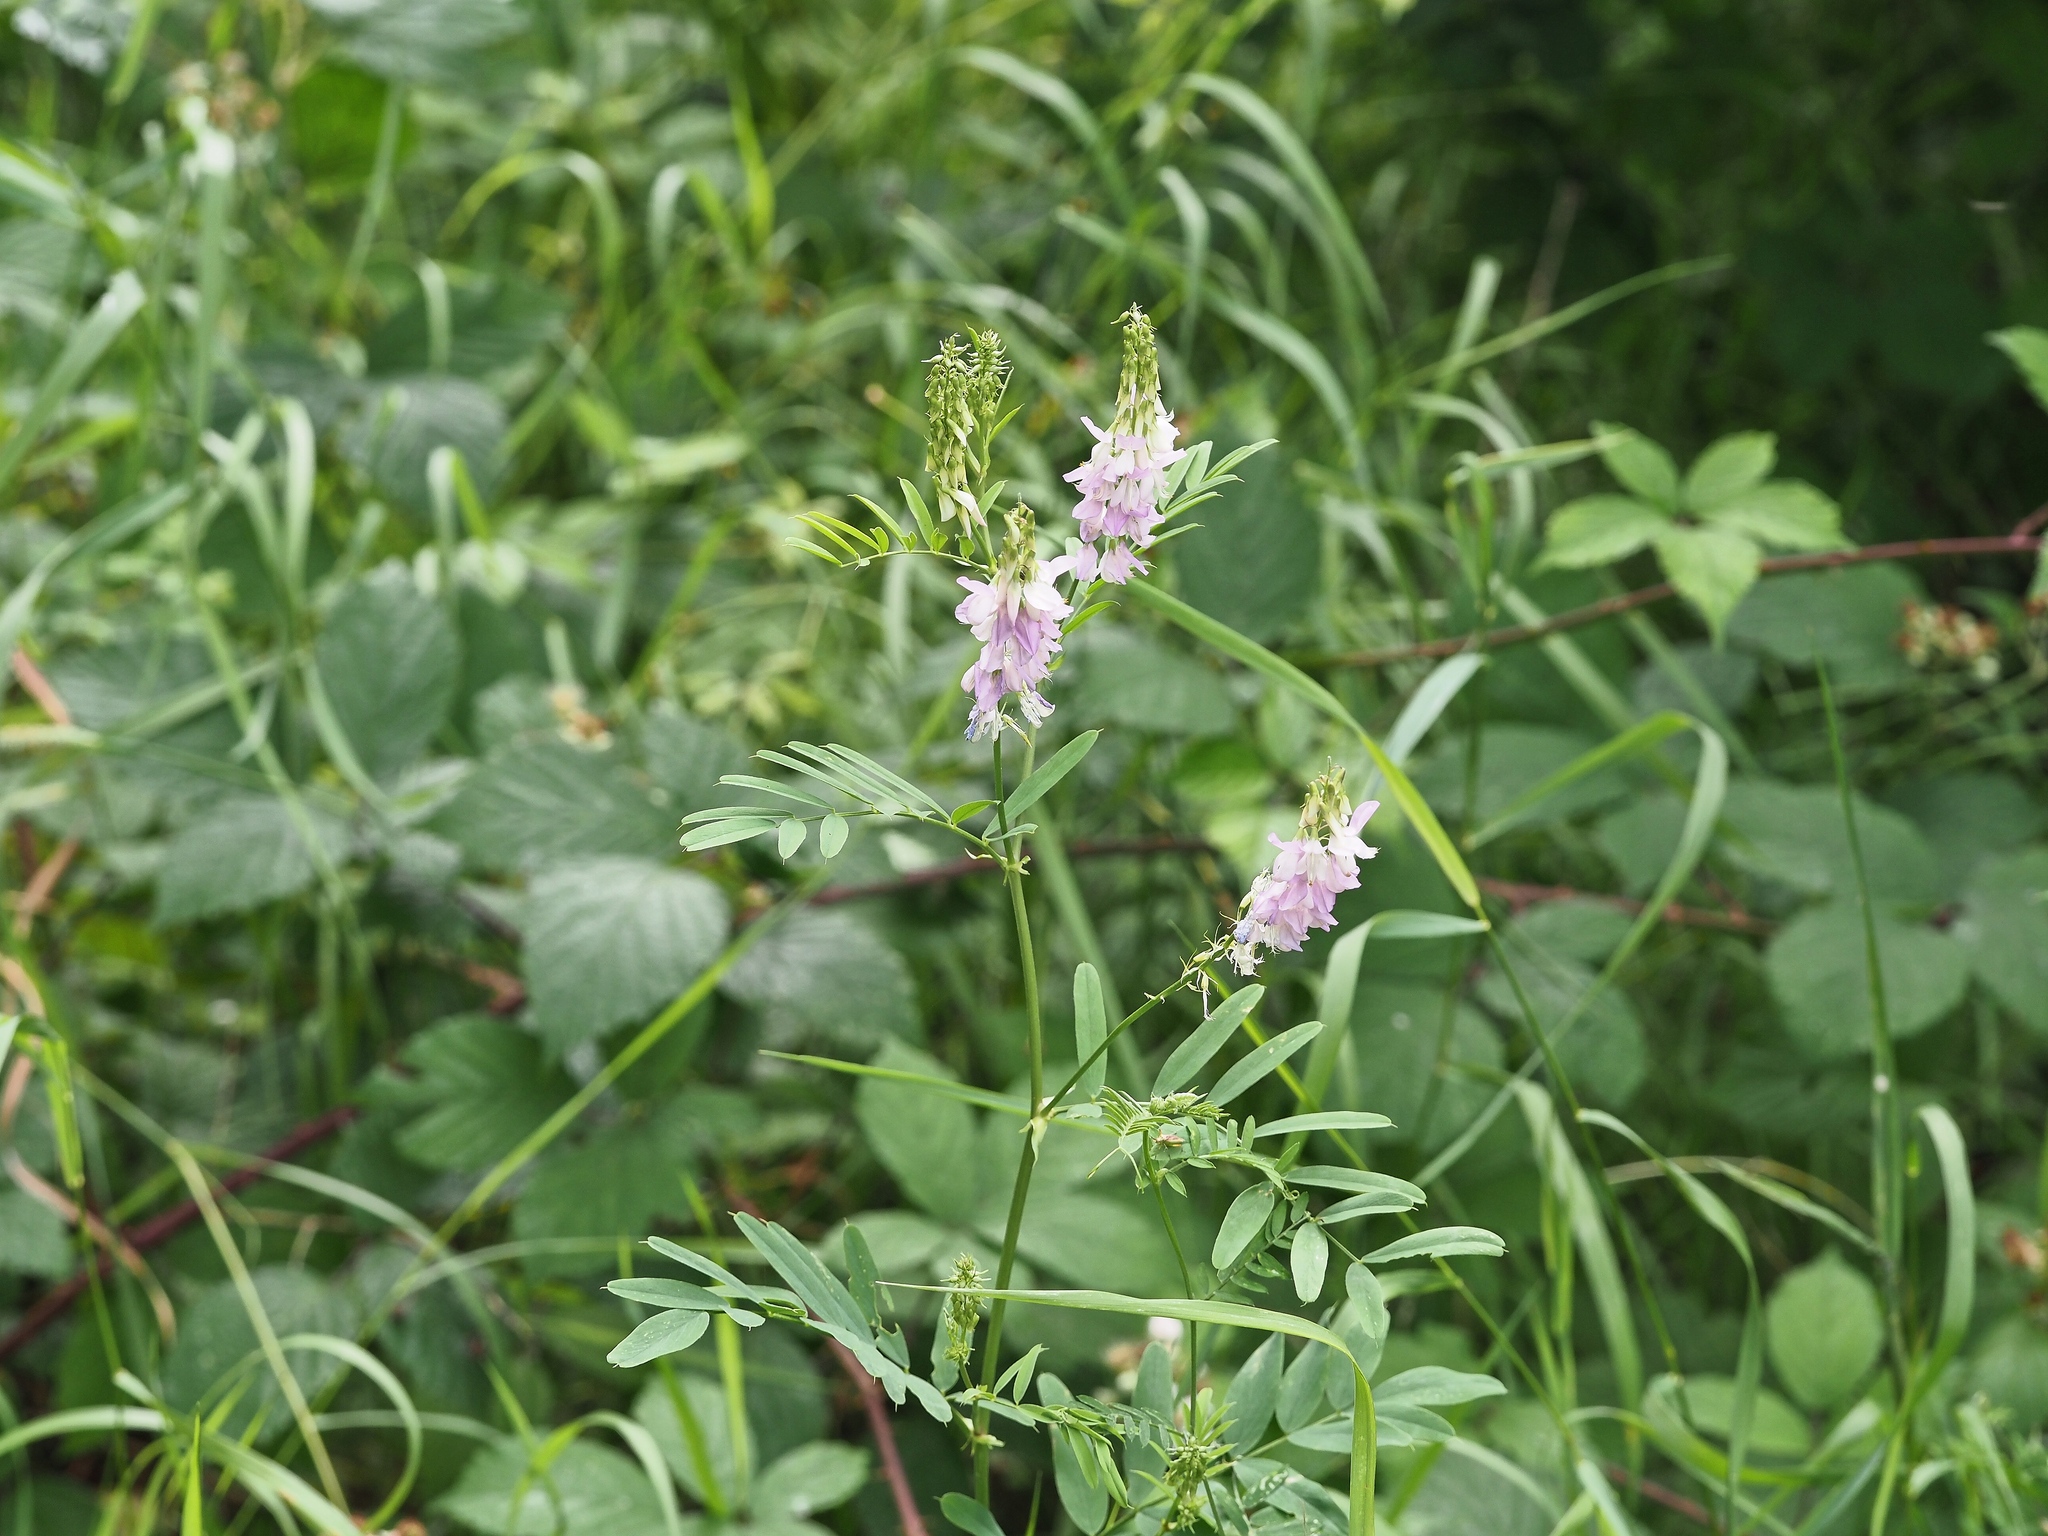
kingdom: Plantae
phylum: Tracheophyta
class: Magnoliopsida
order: Fabales
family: Fabaceae
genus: Galega
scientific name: Galega officinalis
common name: Goat's-rue
